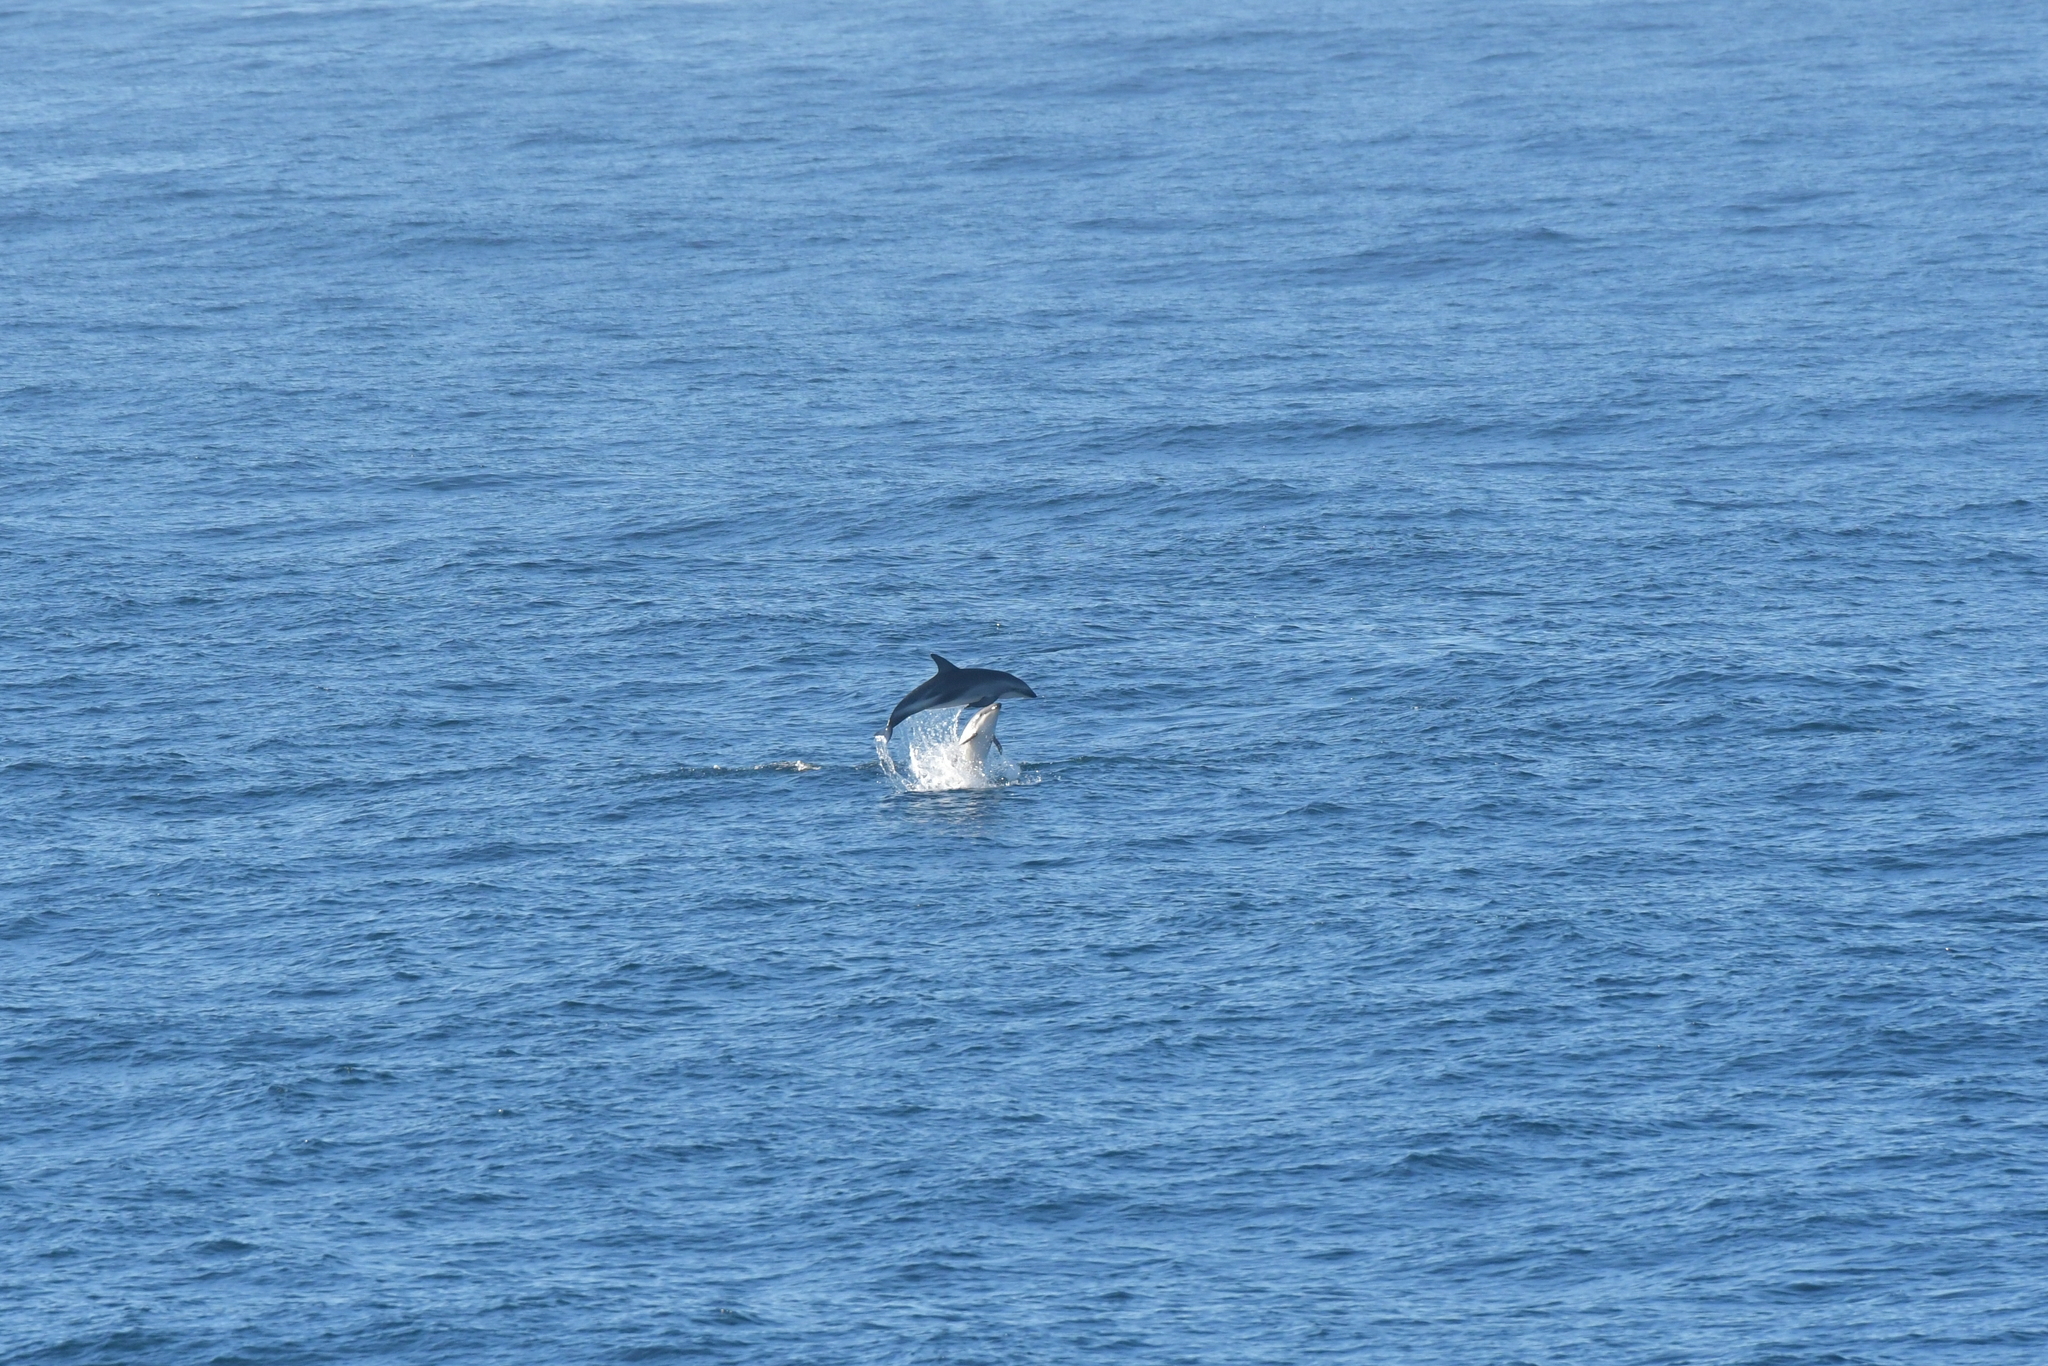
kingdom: Animalia
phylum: Chordata
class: Mammalia
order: Cetacea
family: Delphinidae
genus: Lagenorhynchus
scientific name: Lagenorhynchus obscurus
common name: Dusky dolphin
